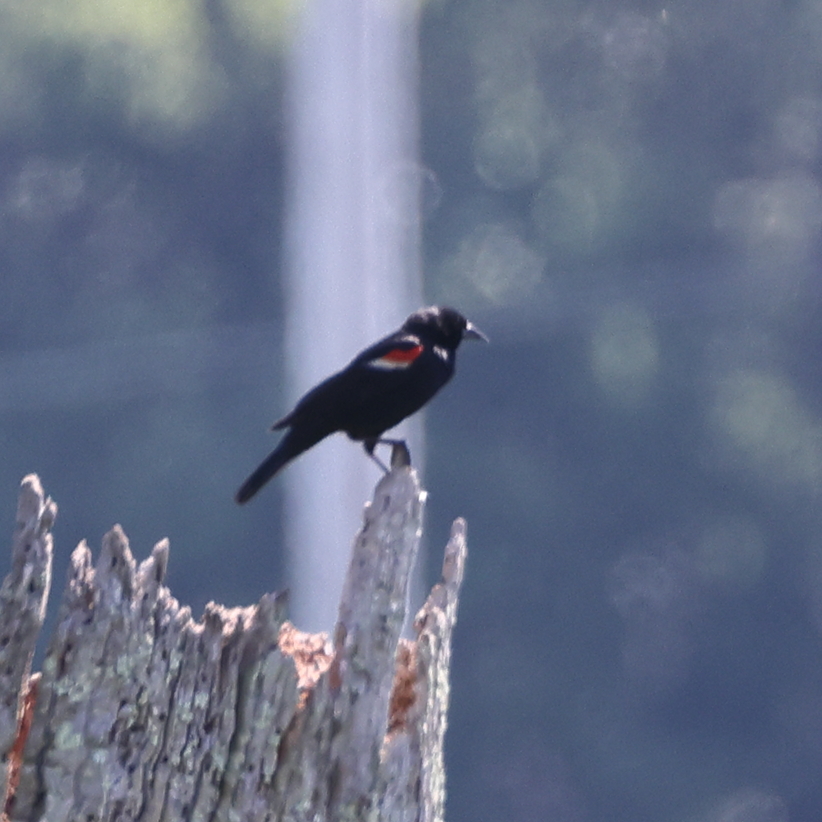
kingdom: Animalia
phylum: Chordata
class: Aves
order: Passeriformes
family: Icteridae
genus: Agelaius
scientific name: Agelaius phoeniceus
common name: Red-winged blackbird
